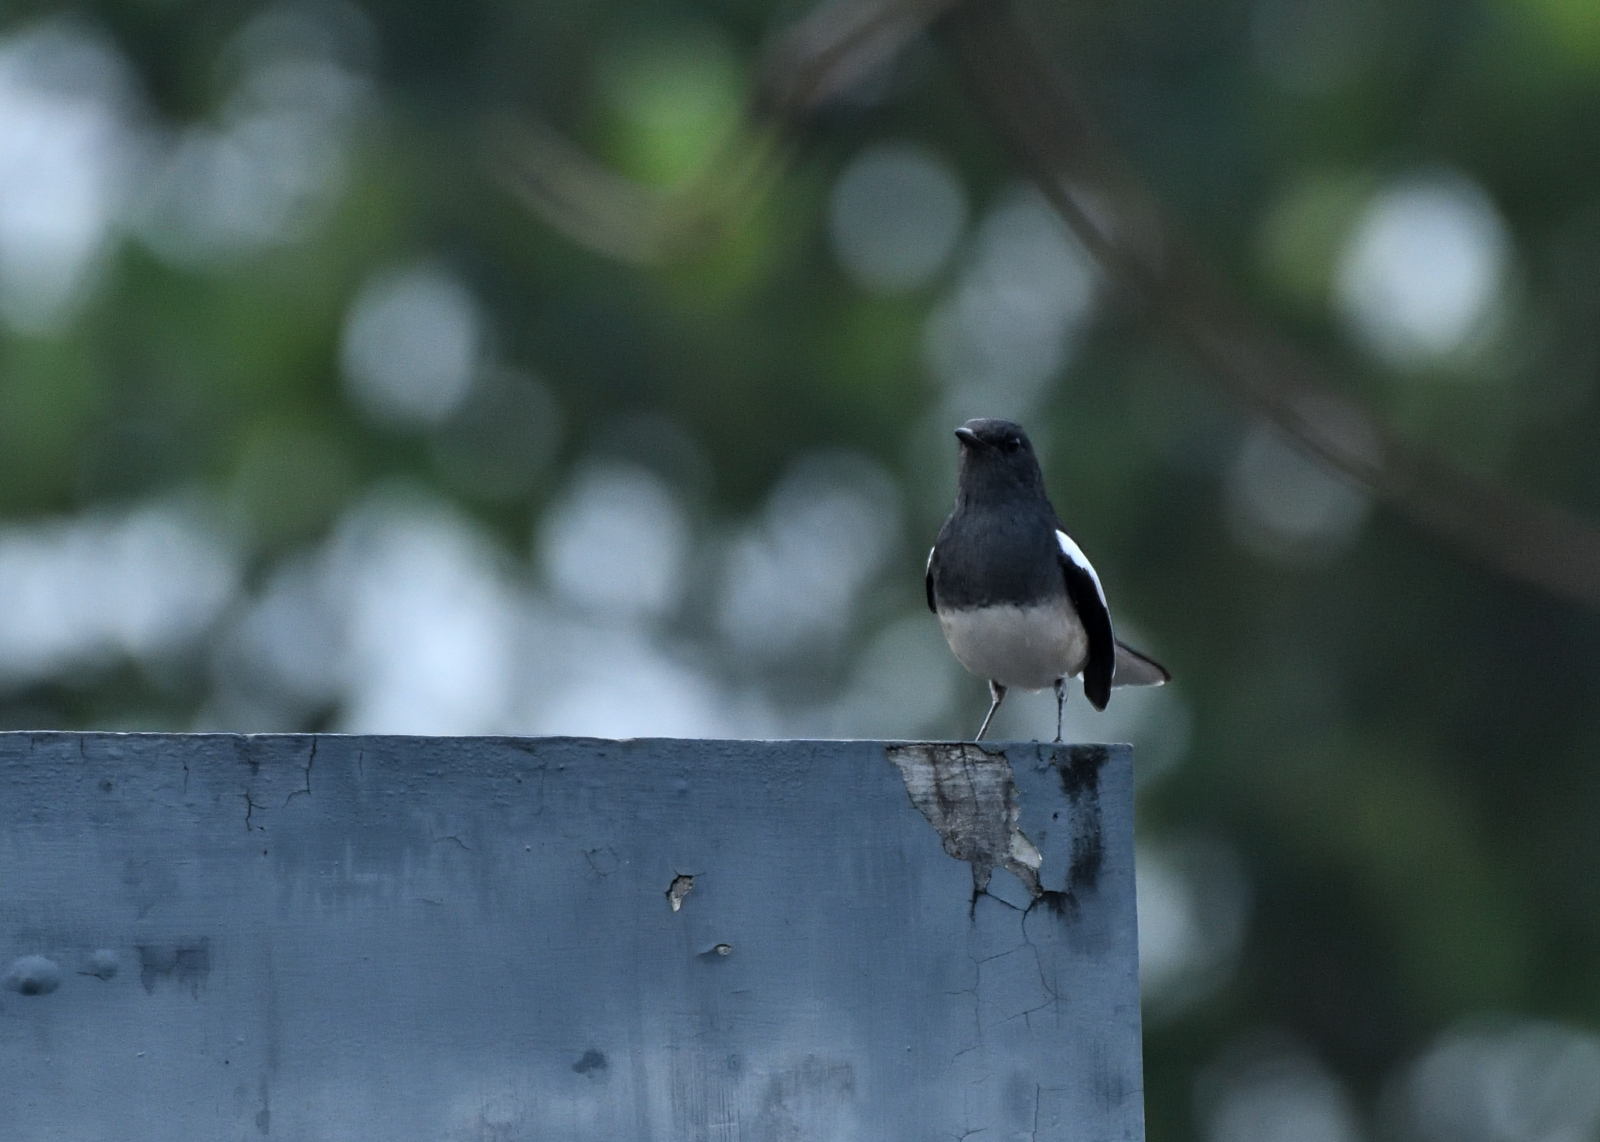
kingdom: Animalia
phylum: Chordata
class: Aves
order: Passeriformes
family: Muscicapidae
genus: Copsychus
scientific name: Copsychus saularis
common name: Oriental magpie-robin
